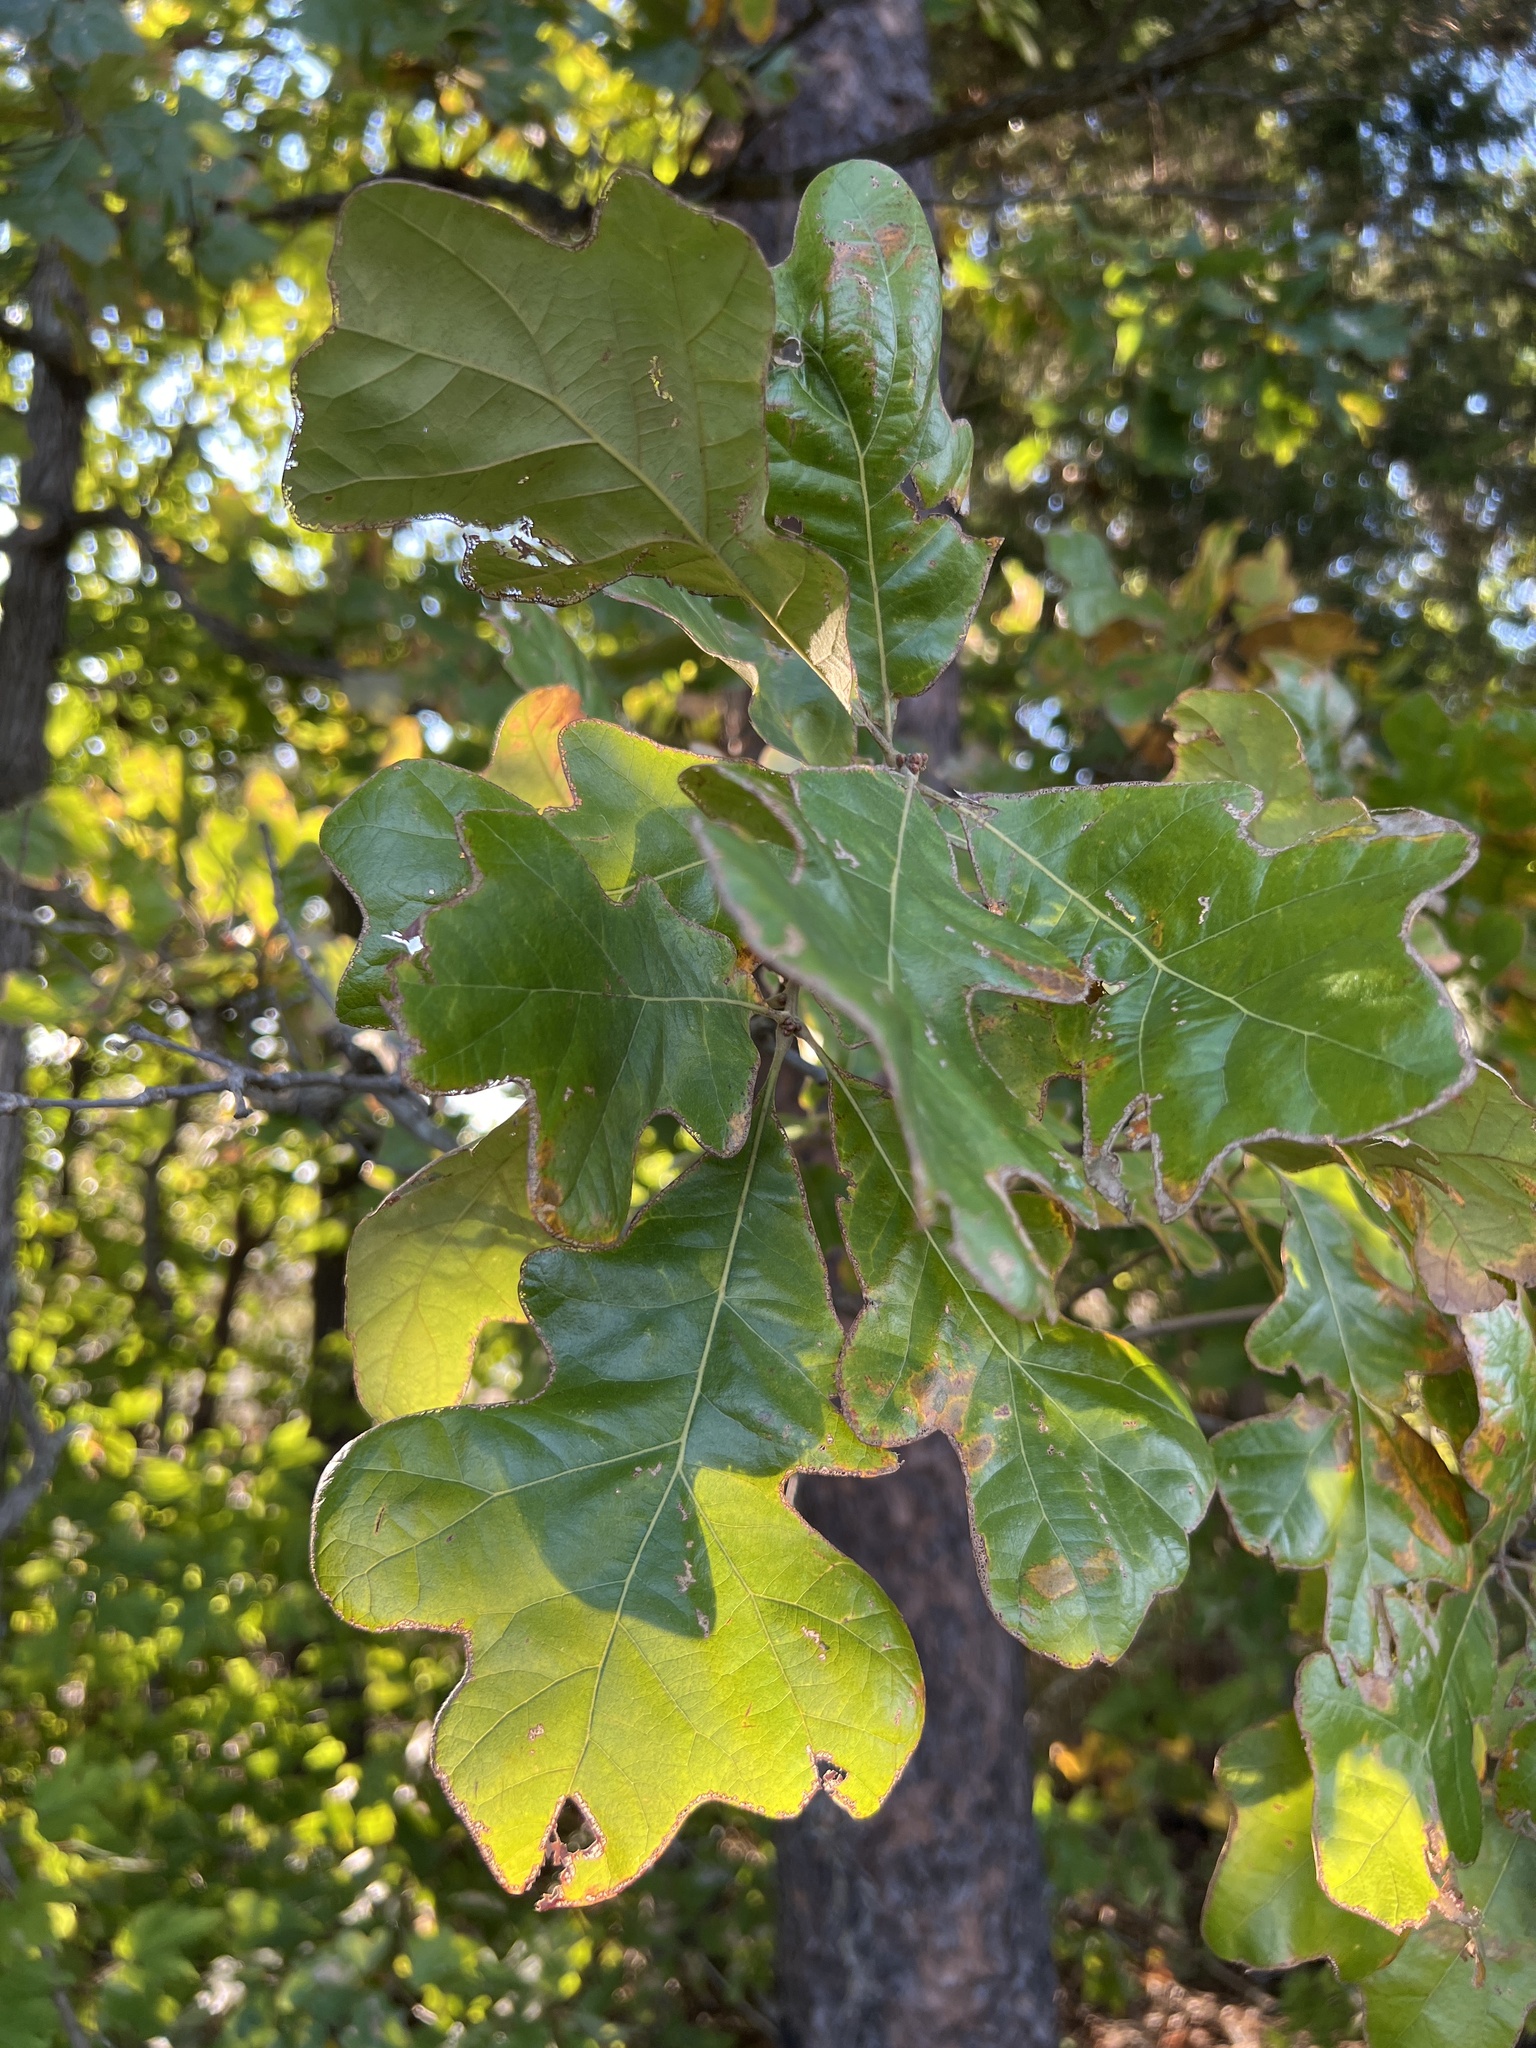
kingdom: Plantae
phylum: Tracheophyta
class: Magnoliopsida
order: Fagales
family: Fagaceae
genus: Quercus
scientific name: Quercus stellata
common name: Post oak
